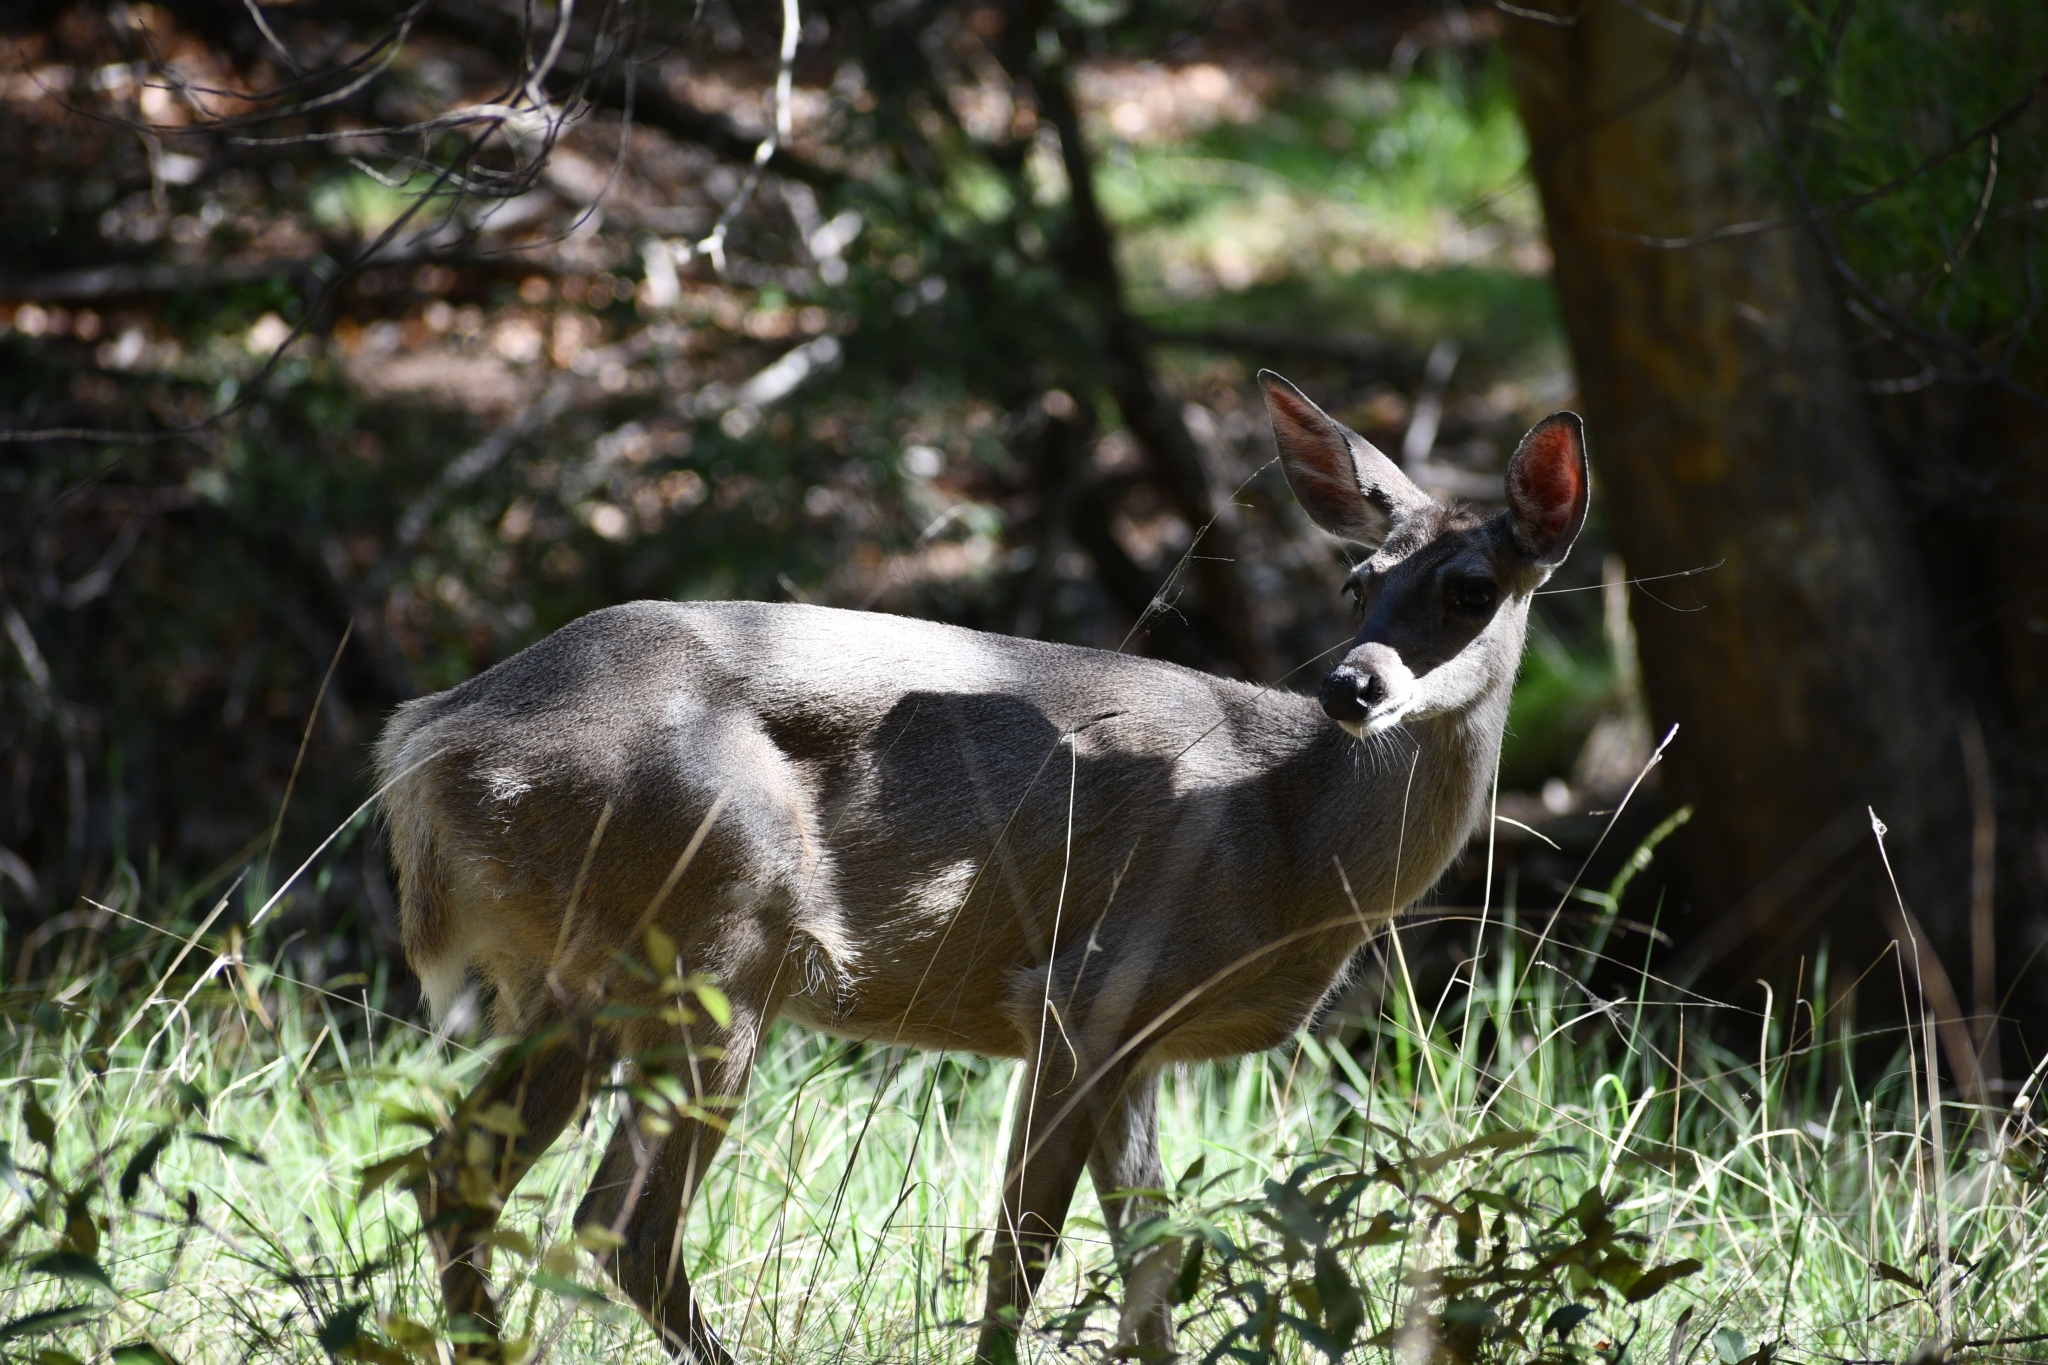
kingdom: Animalia
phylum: Chordata
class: Mammalia
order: Artiodactyla
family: Cervidae
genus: Odocoileus
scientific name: Odocoileus virginianus
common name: White-tailed deer
